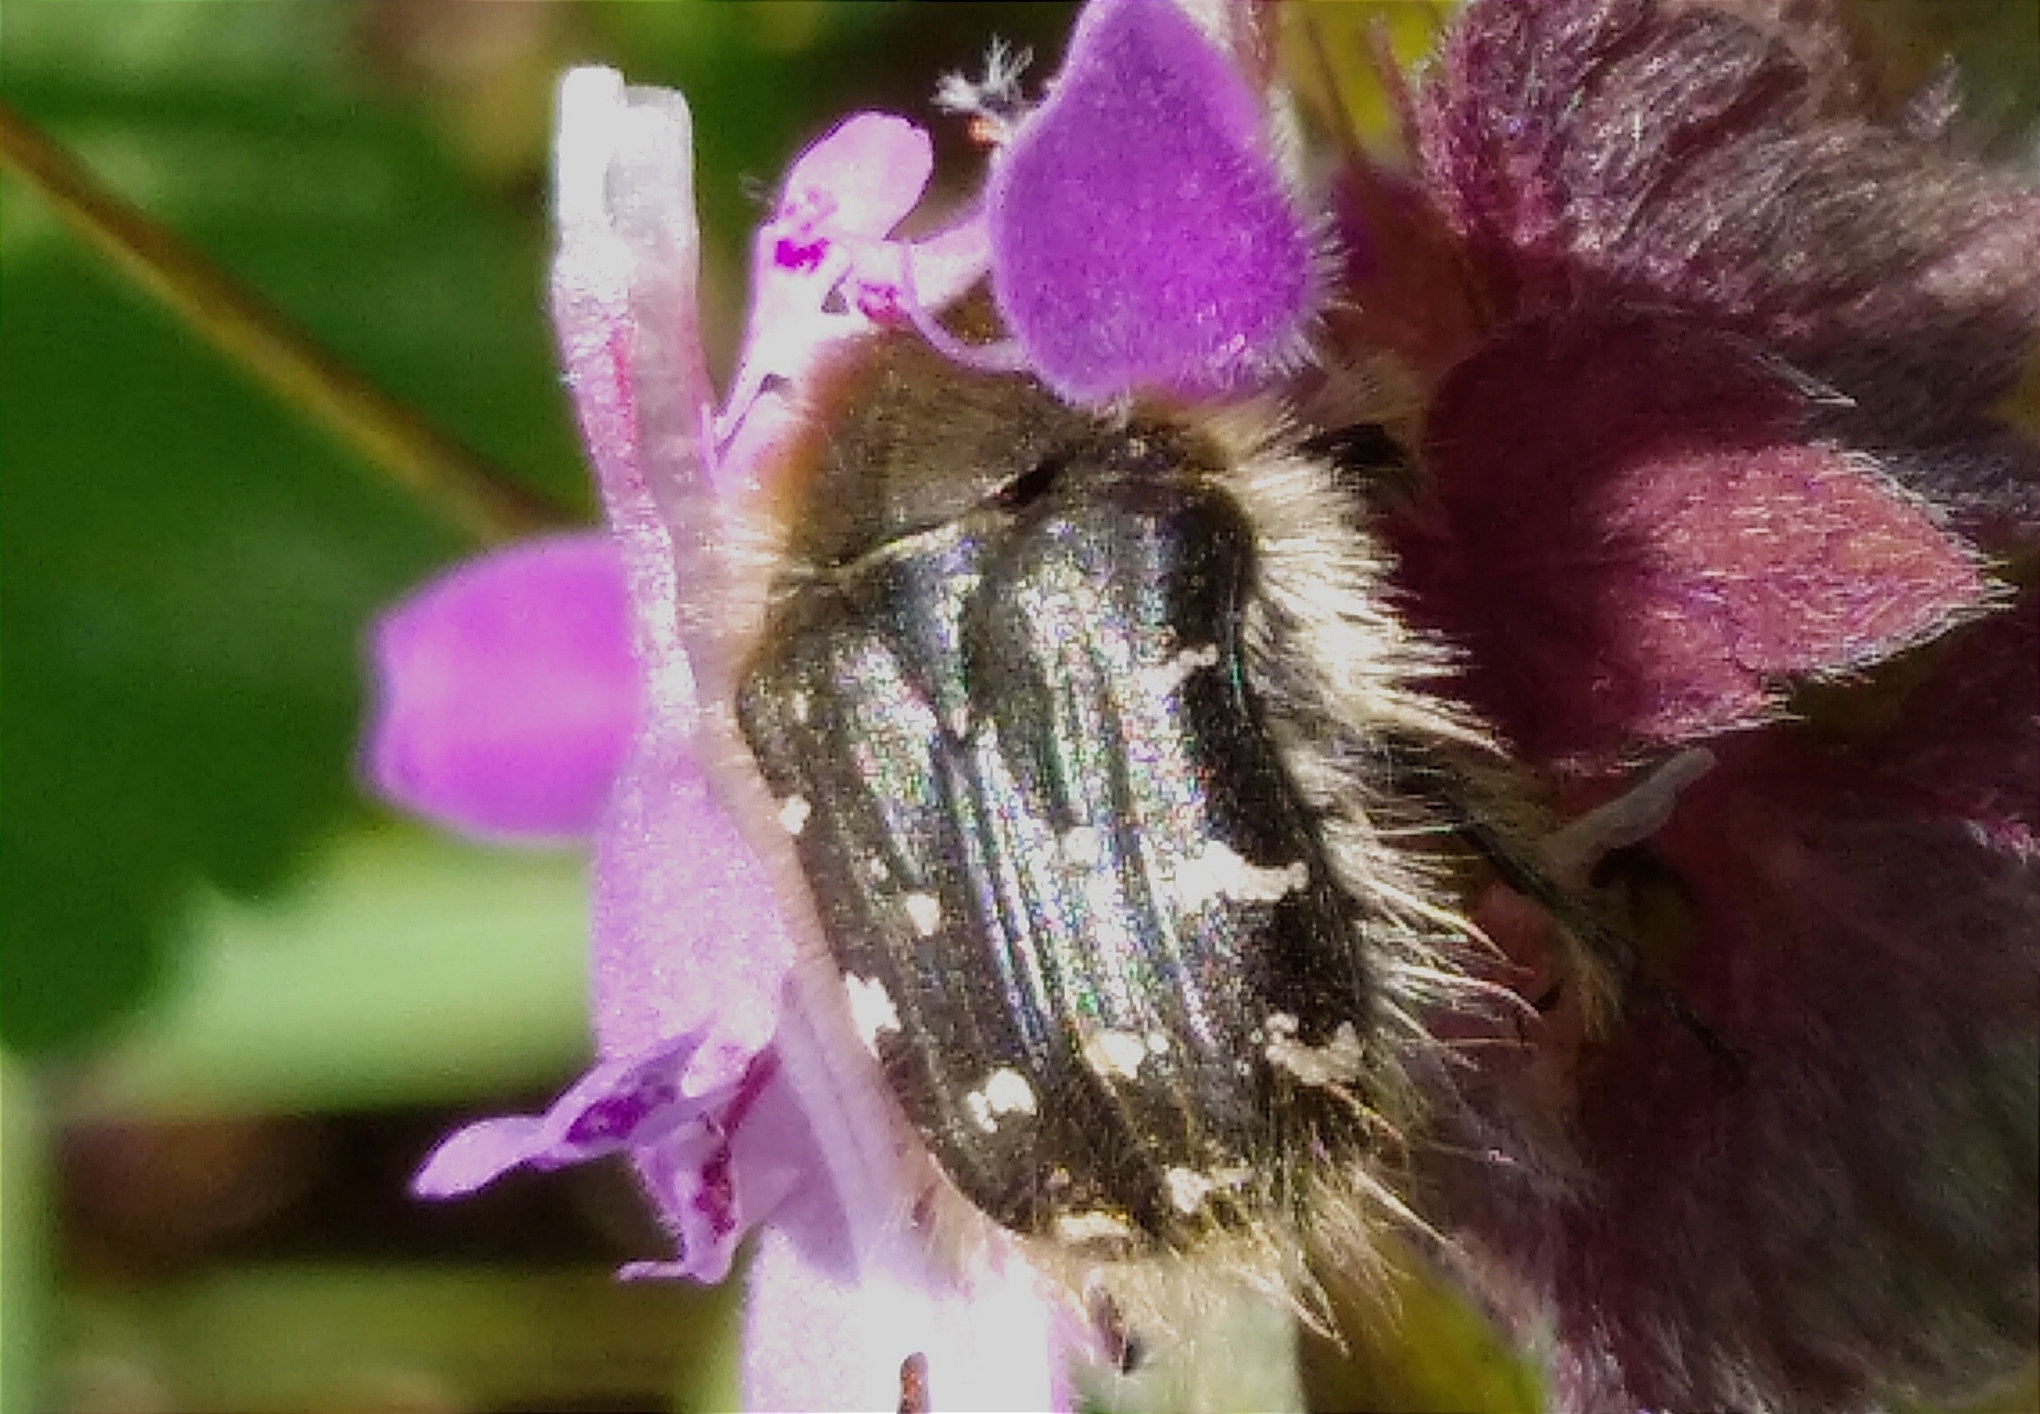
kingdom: Animalia
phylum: Arthropoda
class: Insecta
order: Coleoptera
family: Scarabaeidae
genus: Tropinota
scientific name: Tropinota hirta
